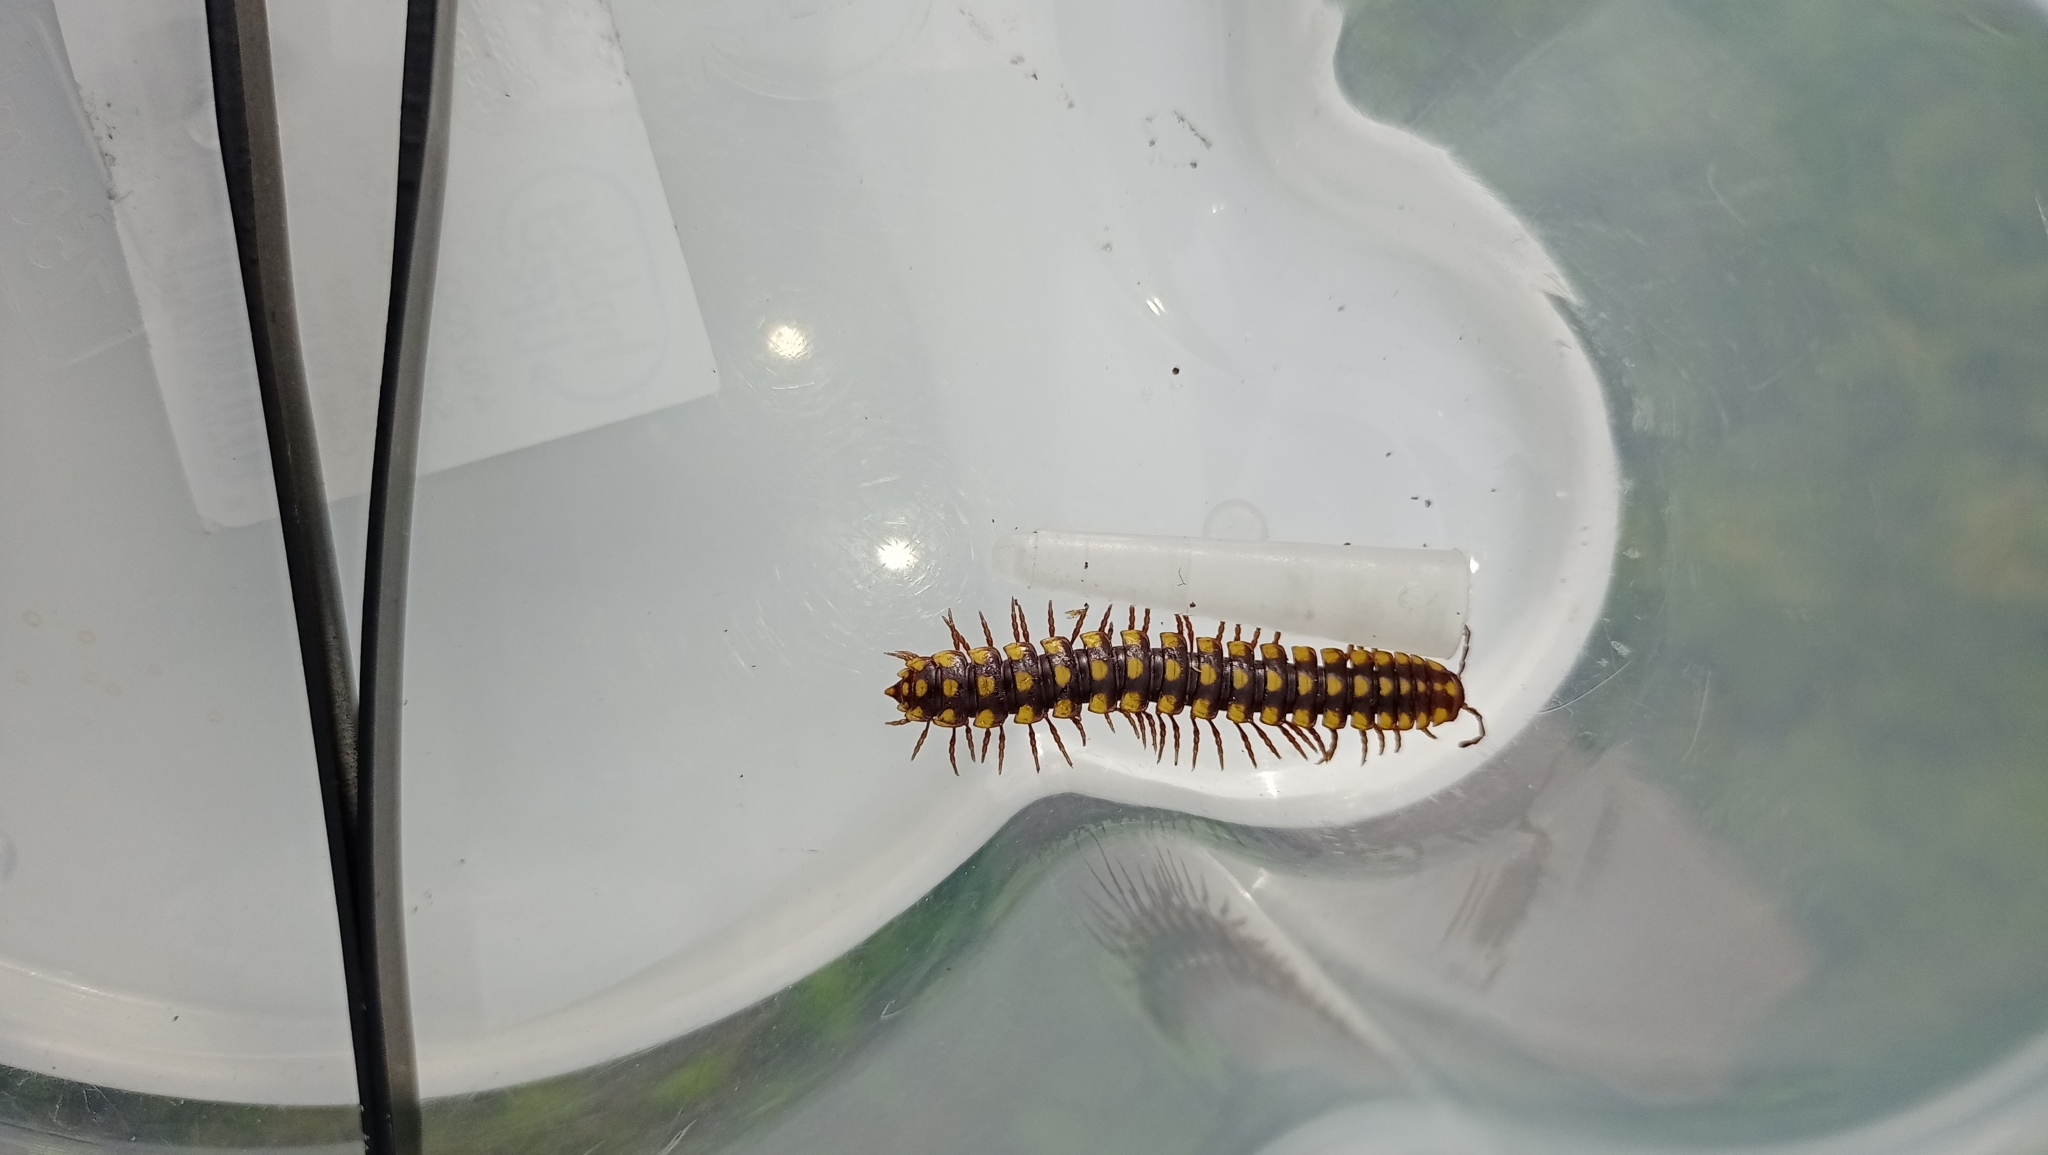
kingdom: Animalia
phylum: Arthropoda
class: Diplopoda
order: Polydesmida
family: Xystodesmidae
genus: Melaphe
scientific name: Melaphe vestita
